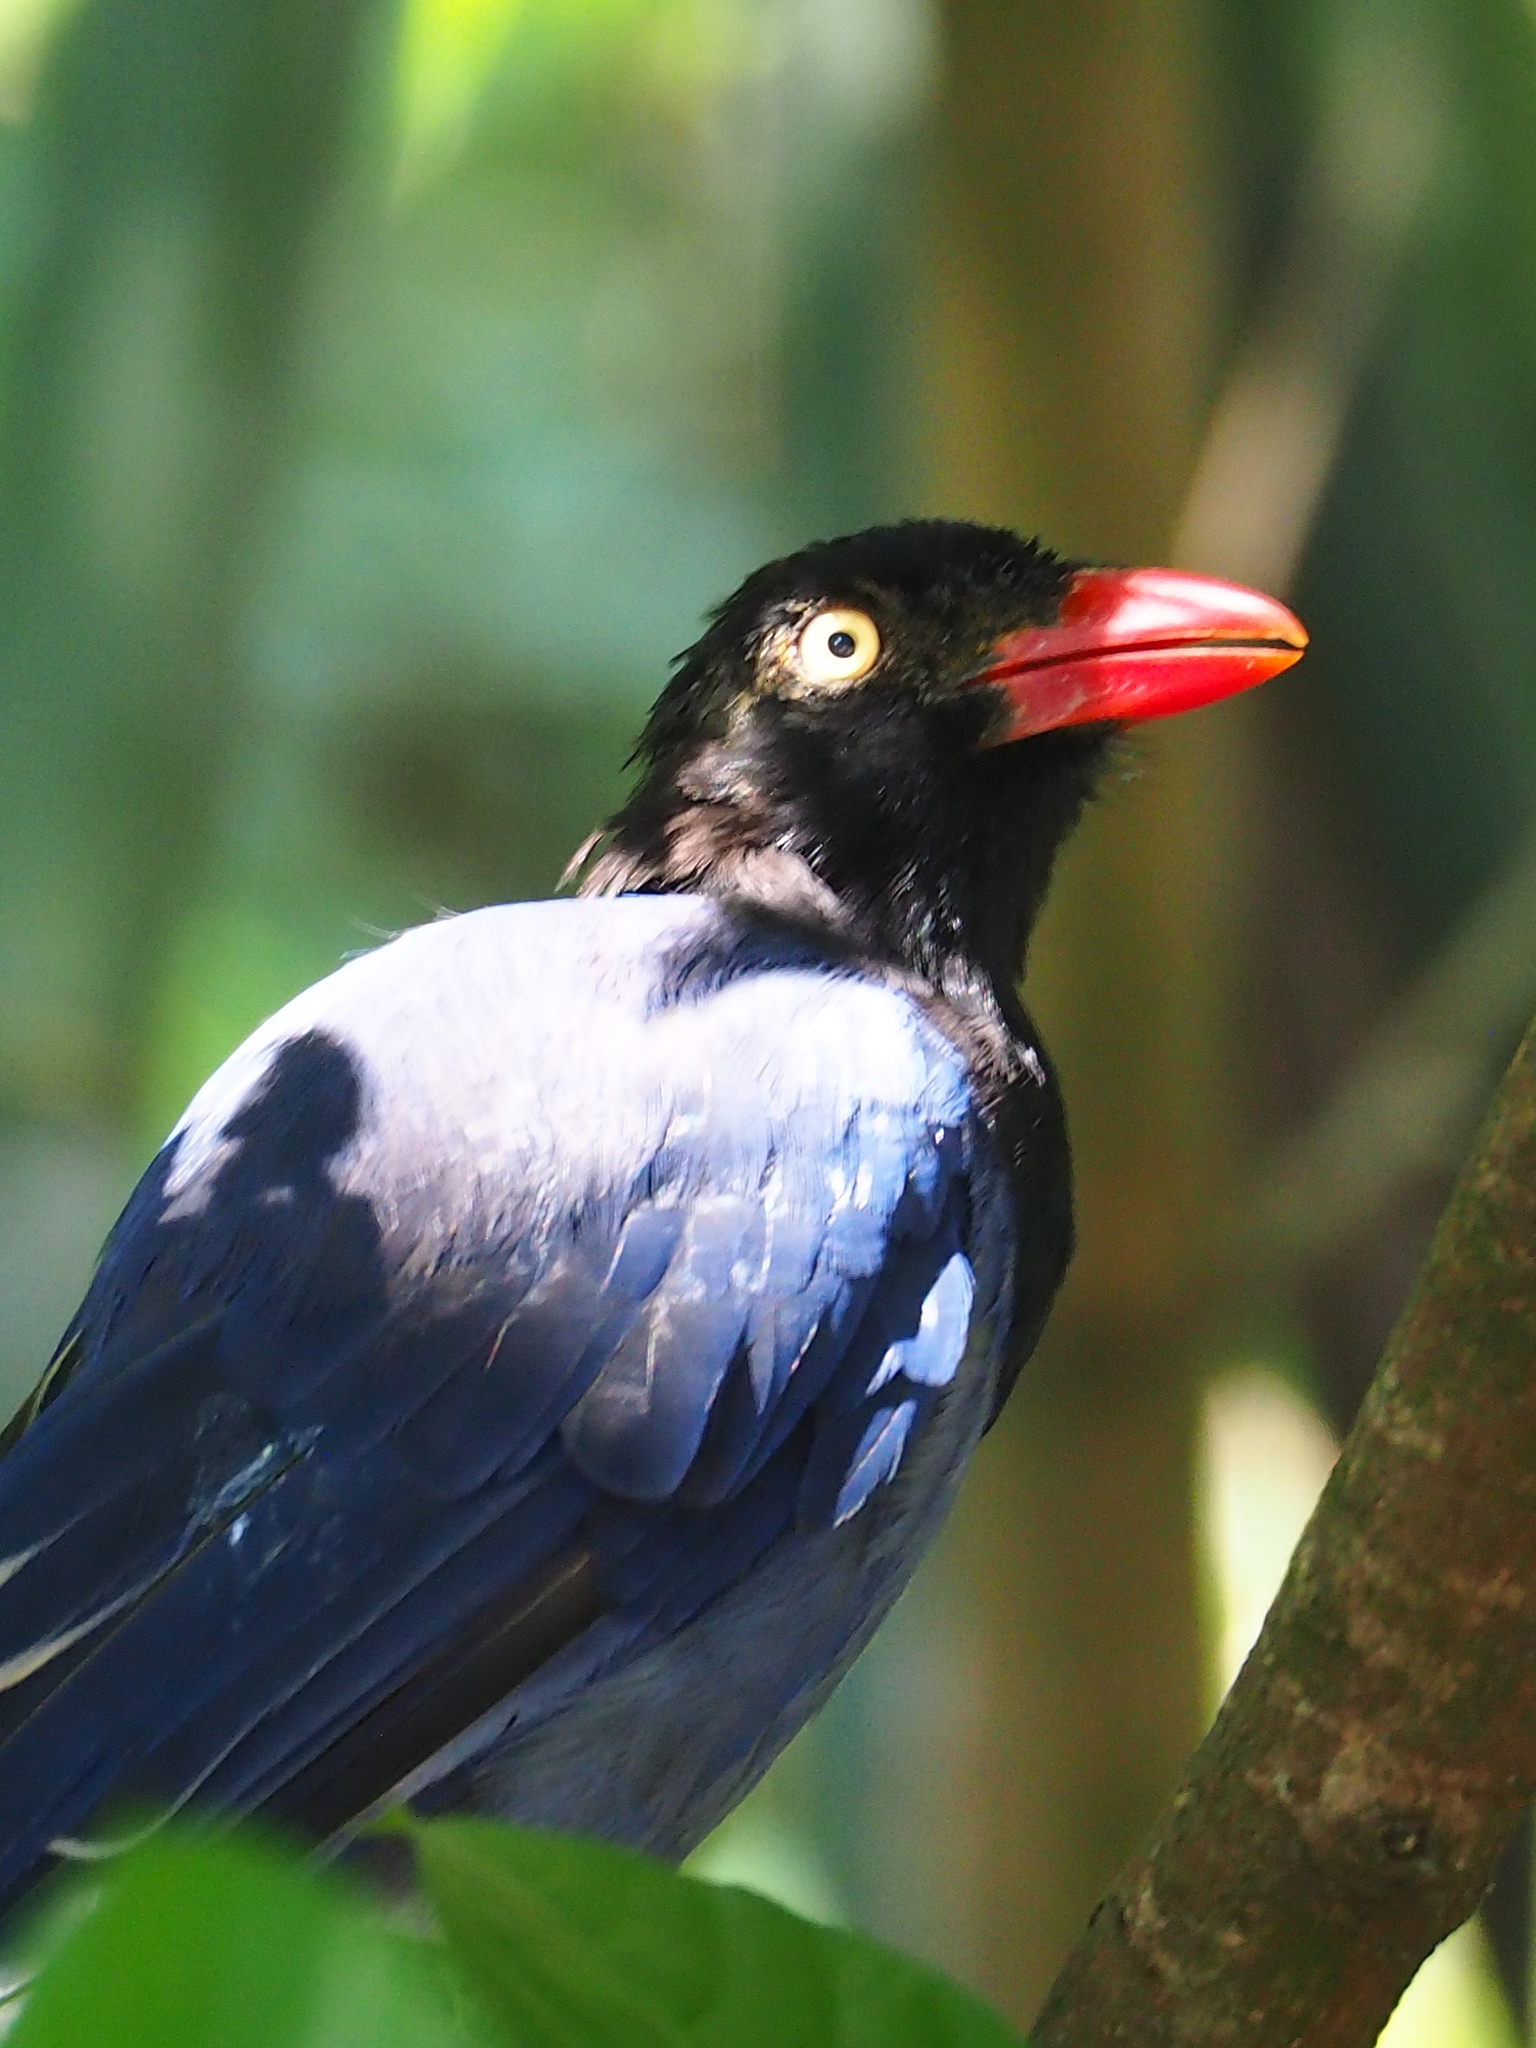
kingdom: Animalia
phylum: Chordata
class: Aves
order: Passeriformes
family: Corvidae
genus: Urocissa
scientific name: Urocissa caerulea
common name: Taiwan blue magpie
